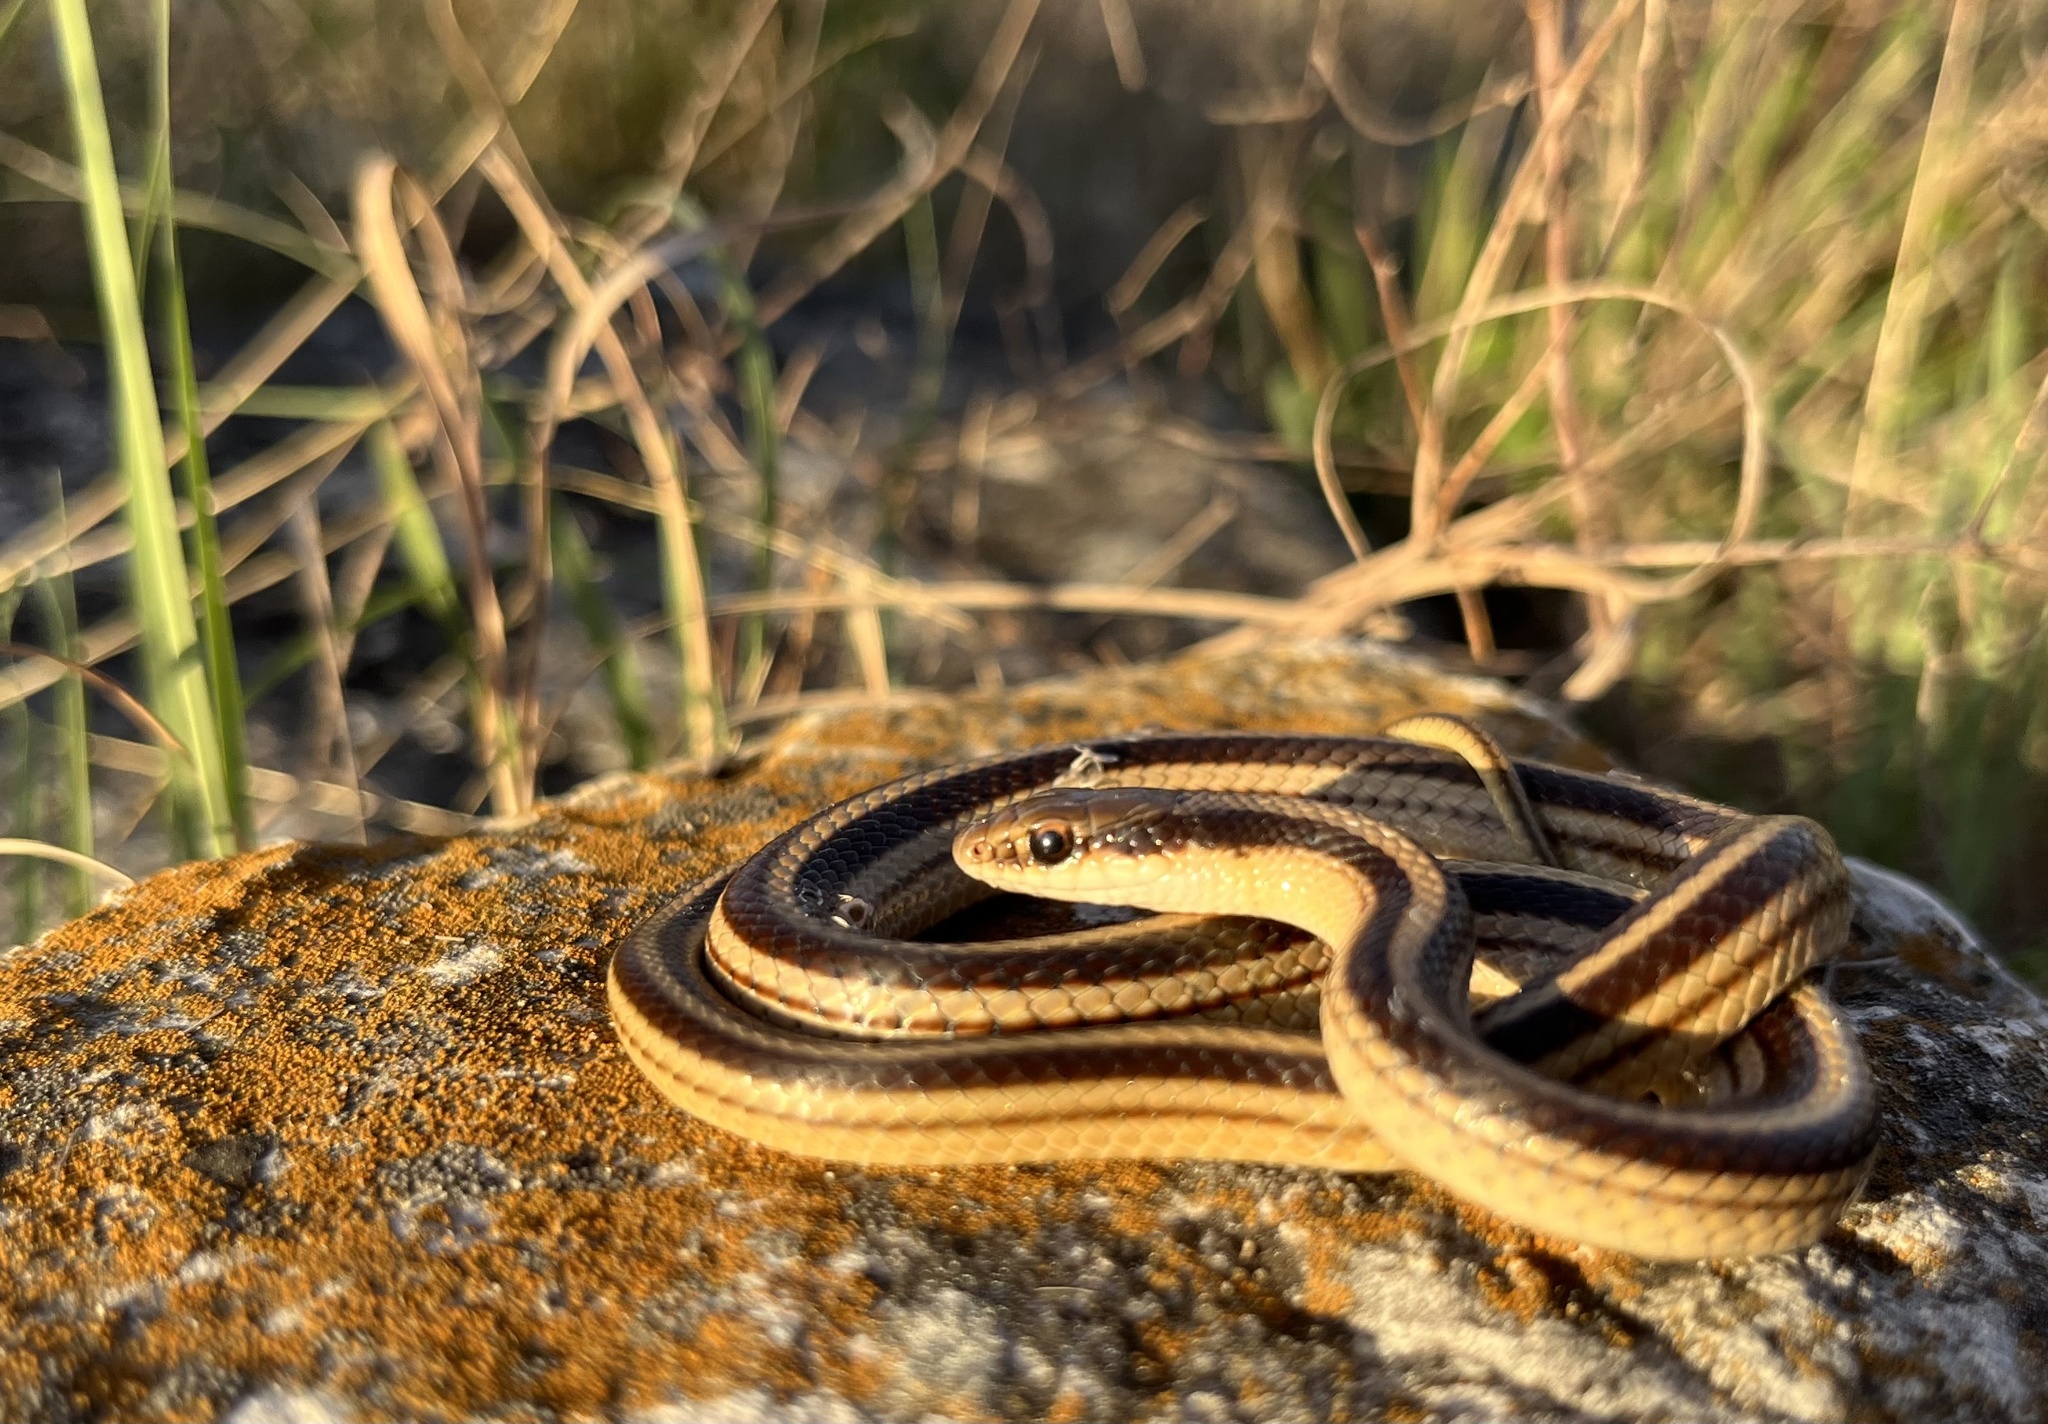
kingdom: Animalia
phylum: Chordata
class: Squamata
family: Colubridae
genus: Salvadora
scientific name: Salvadora lineata
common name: Texas patchnose snake
